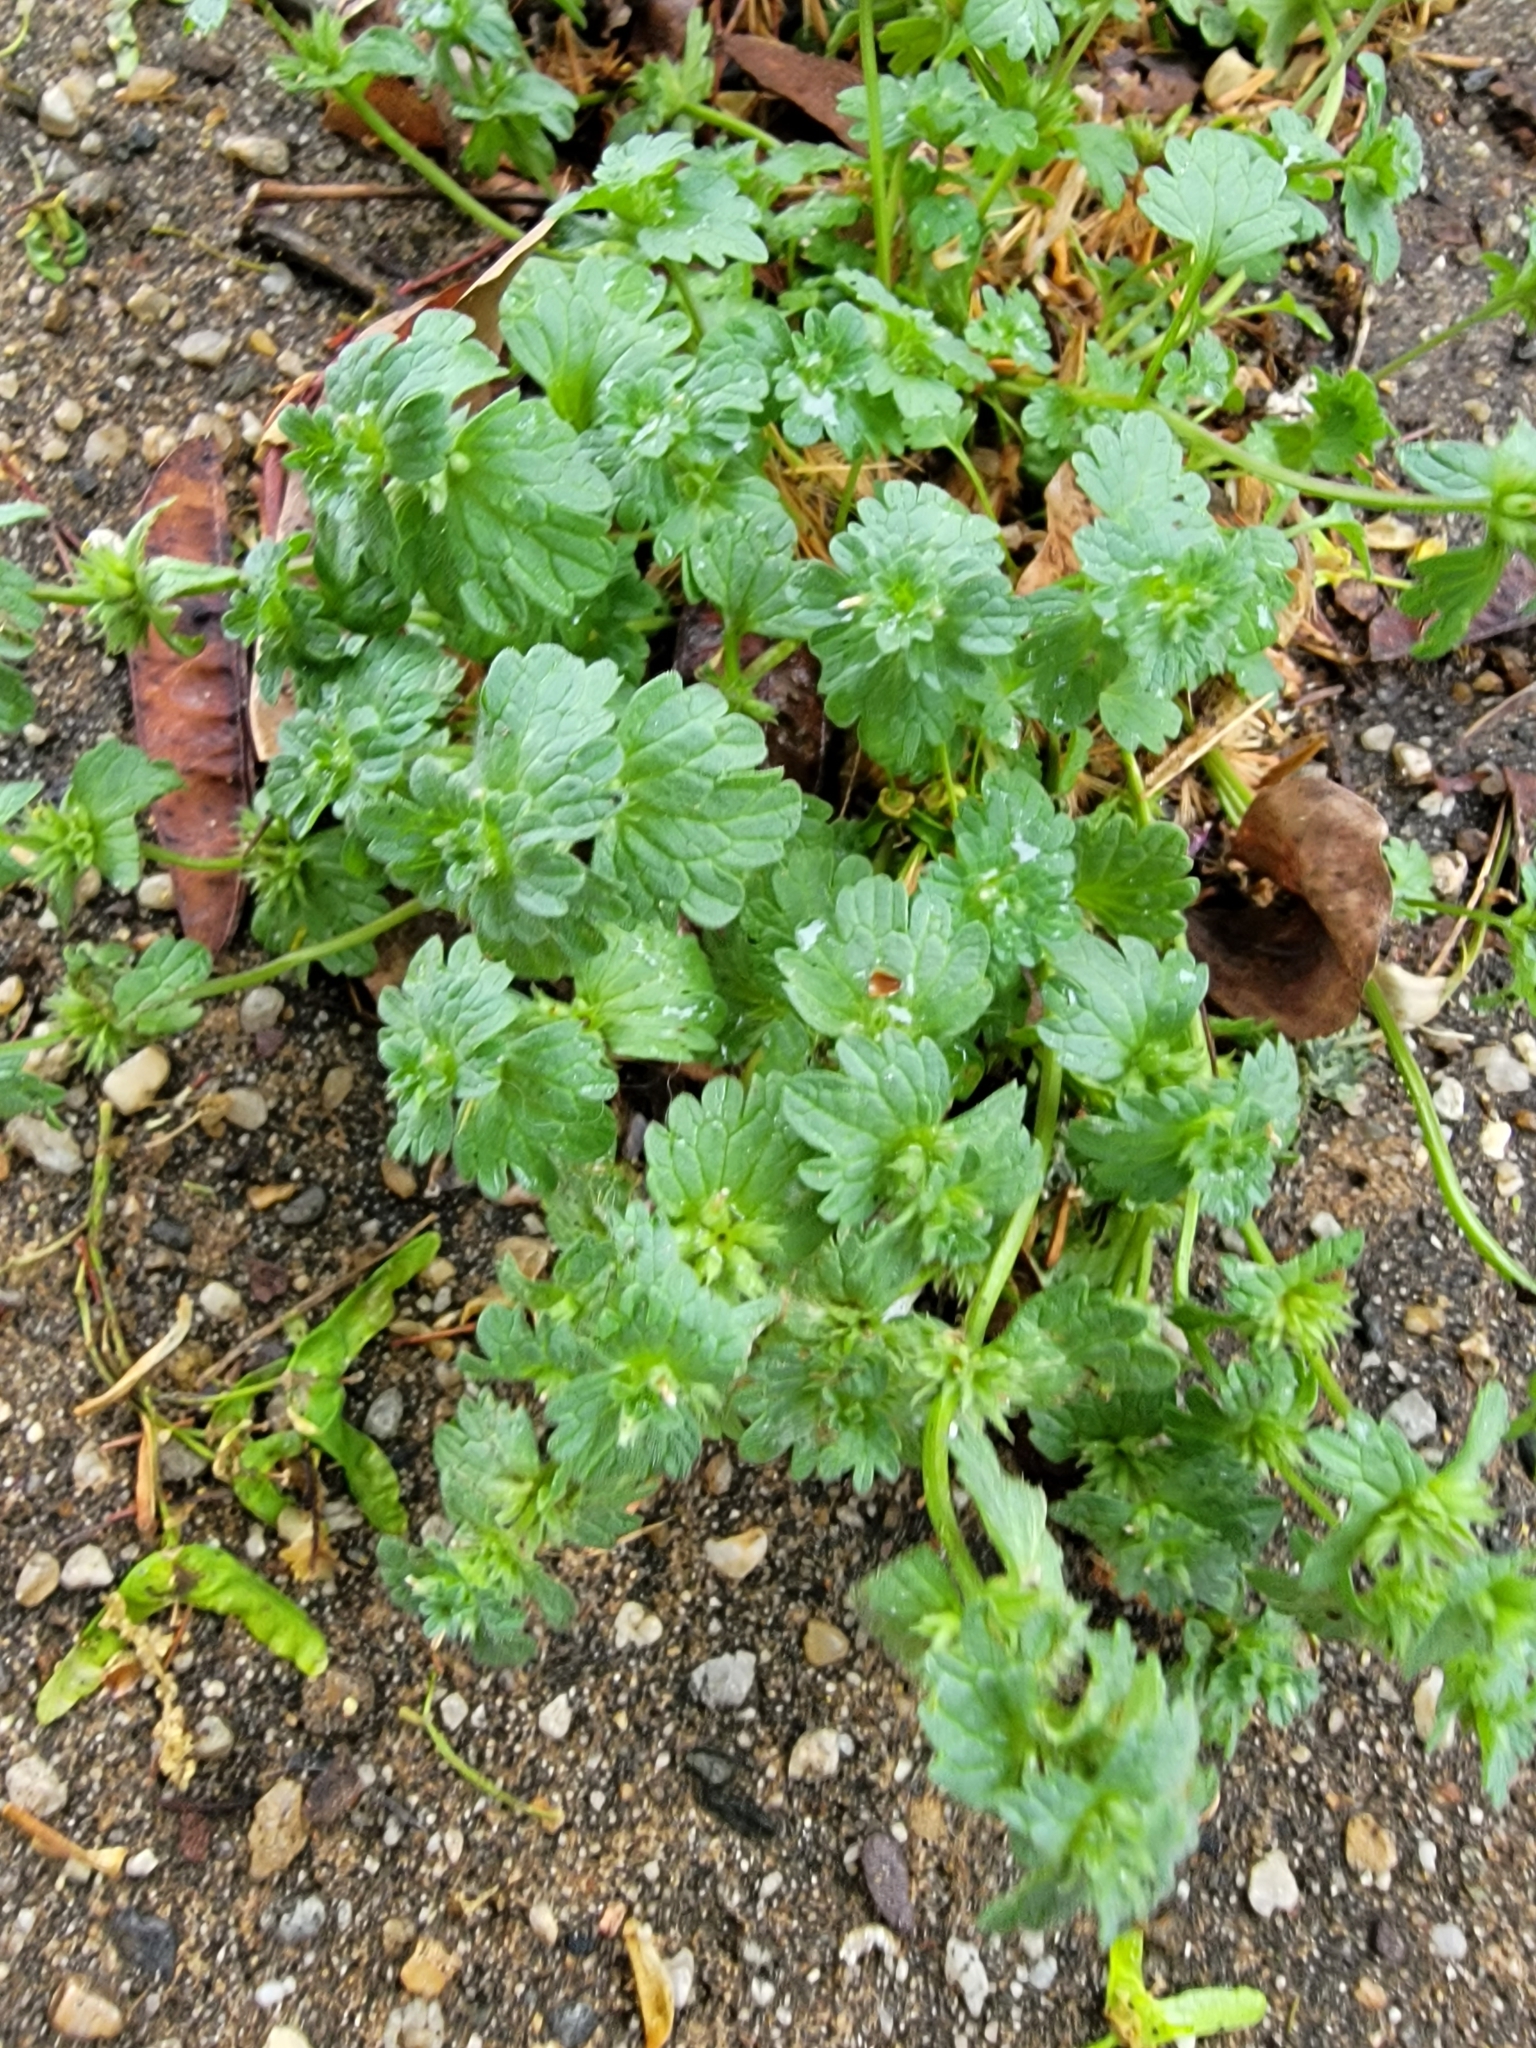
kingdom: Plantae
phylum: Tracheophyta
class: Magnoliopsida
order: Lamiales
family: Lamiaceae
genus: Lamium
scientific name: Lamium amplexicaule
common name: Henbit dead-nettle
